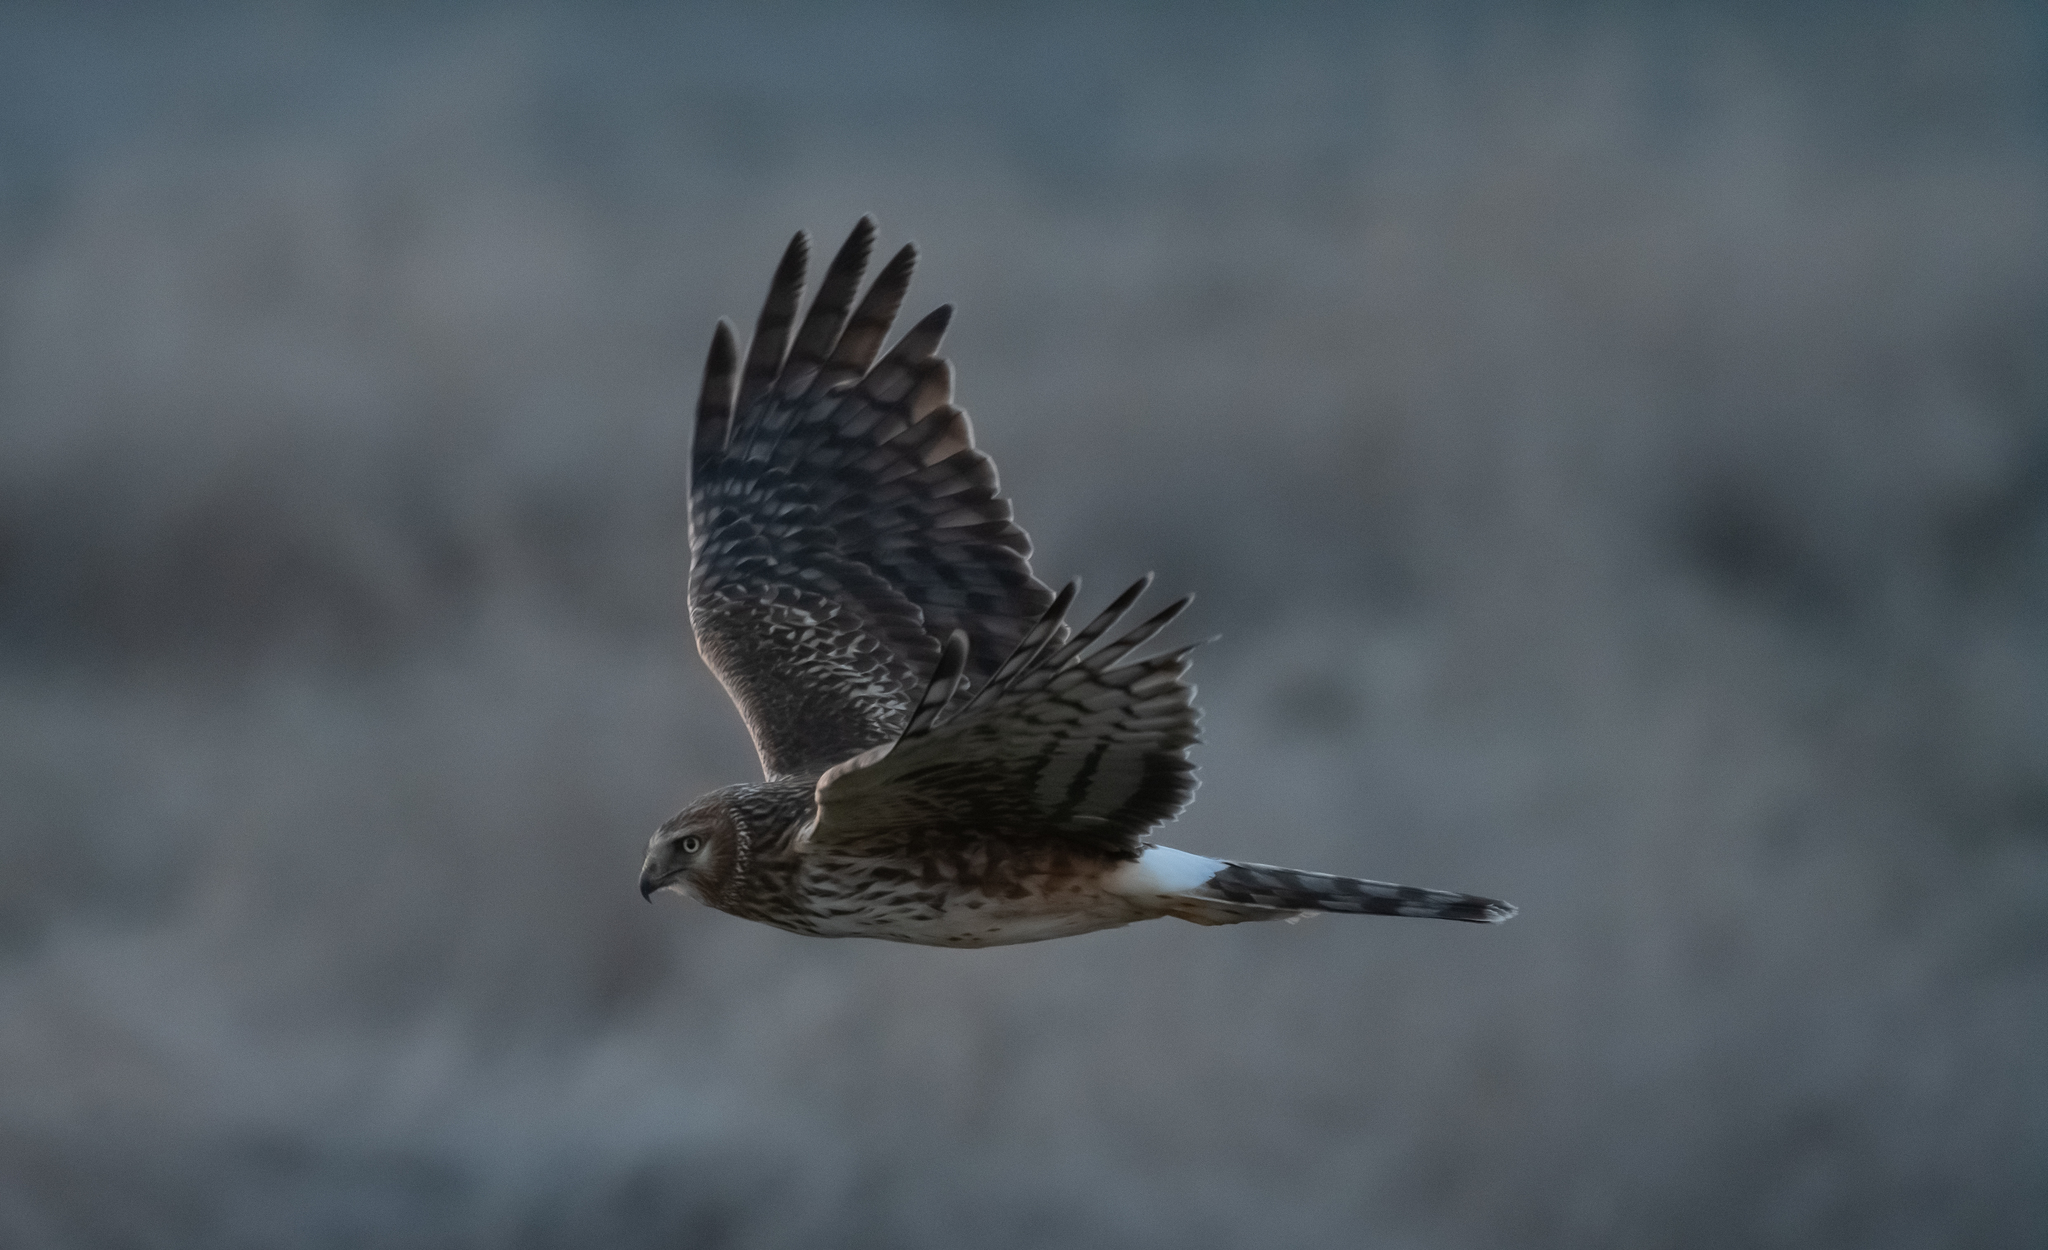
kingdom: Animalia
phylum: Chordata
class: Aves
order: Accipitriformes
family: Accipitridae
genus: Circus
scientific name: Circus cyaneus
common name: Hen harrier
